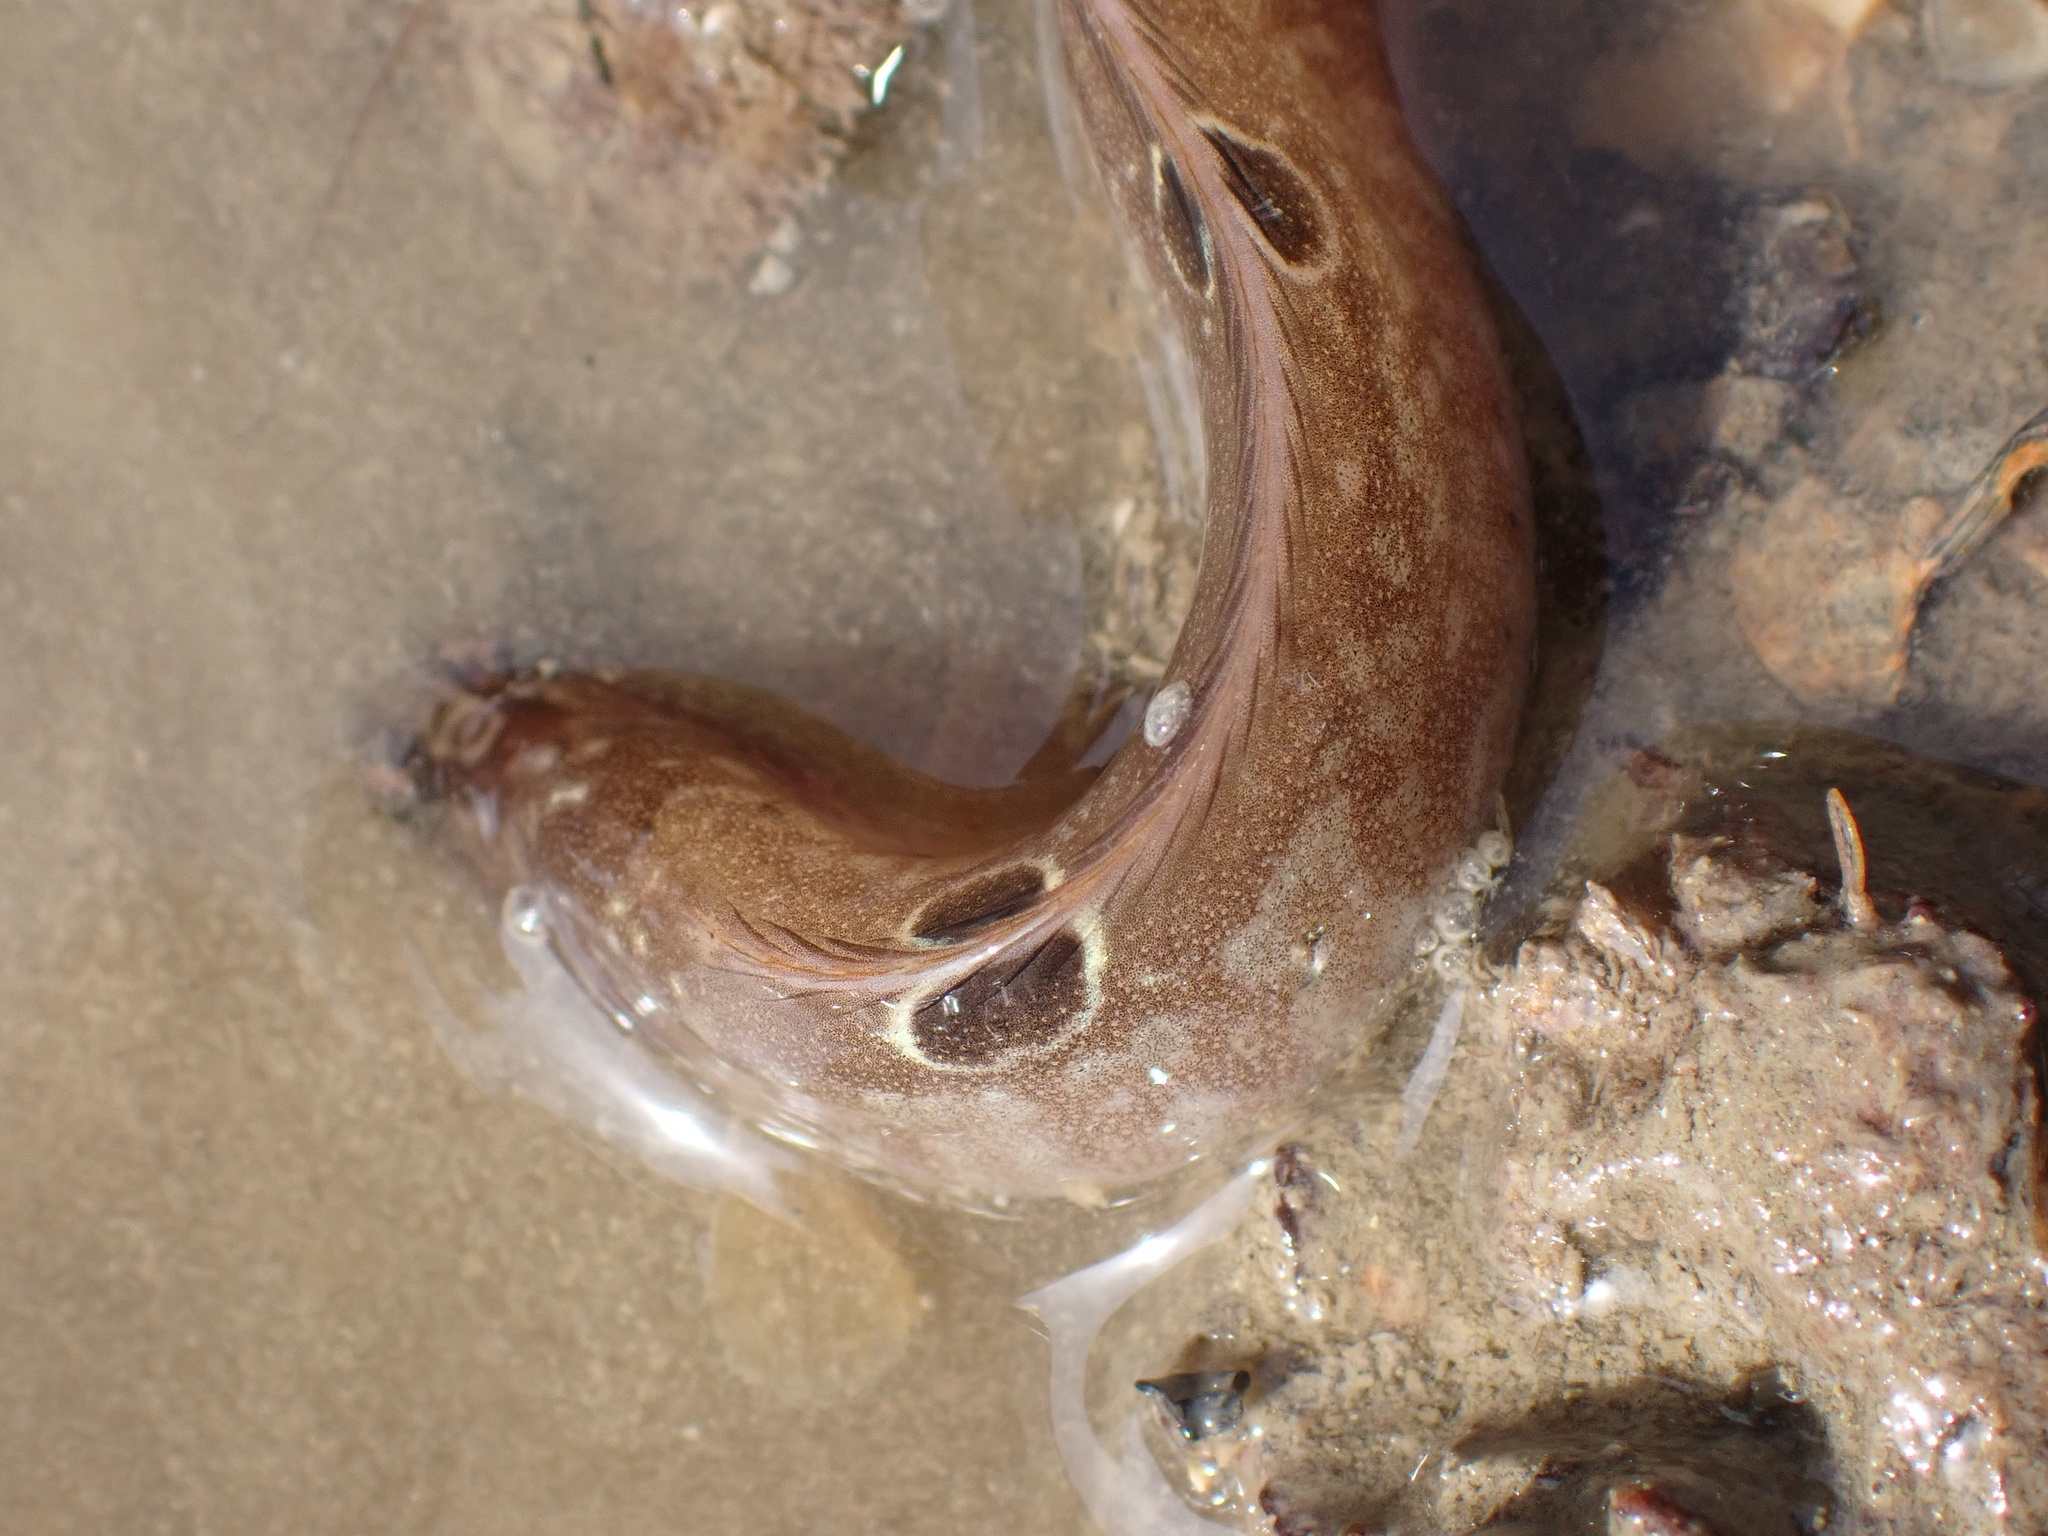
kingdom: Animalia
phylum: Chordata
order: Perciformes
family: Pholidae
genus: Pholis
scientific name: Pholis gunnellus
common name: Butterfish
